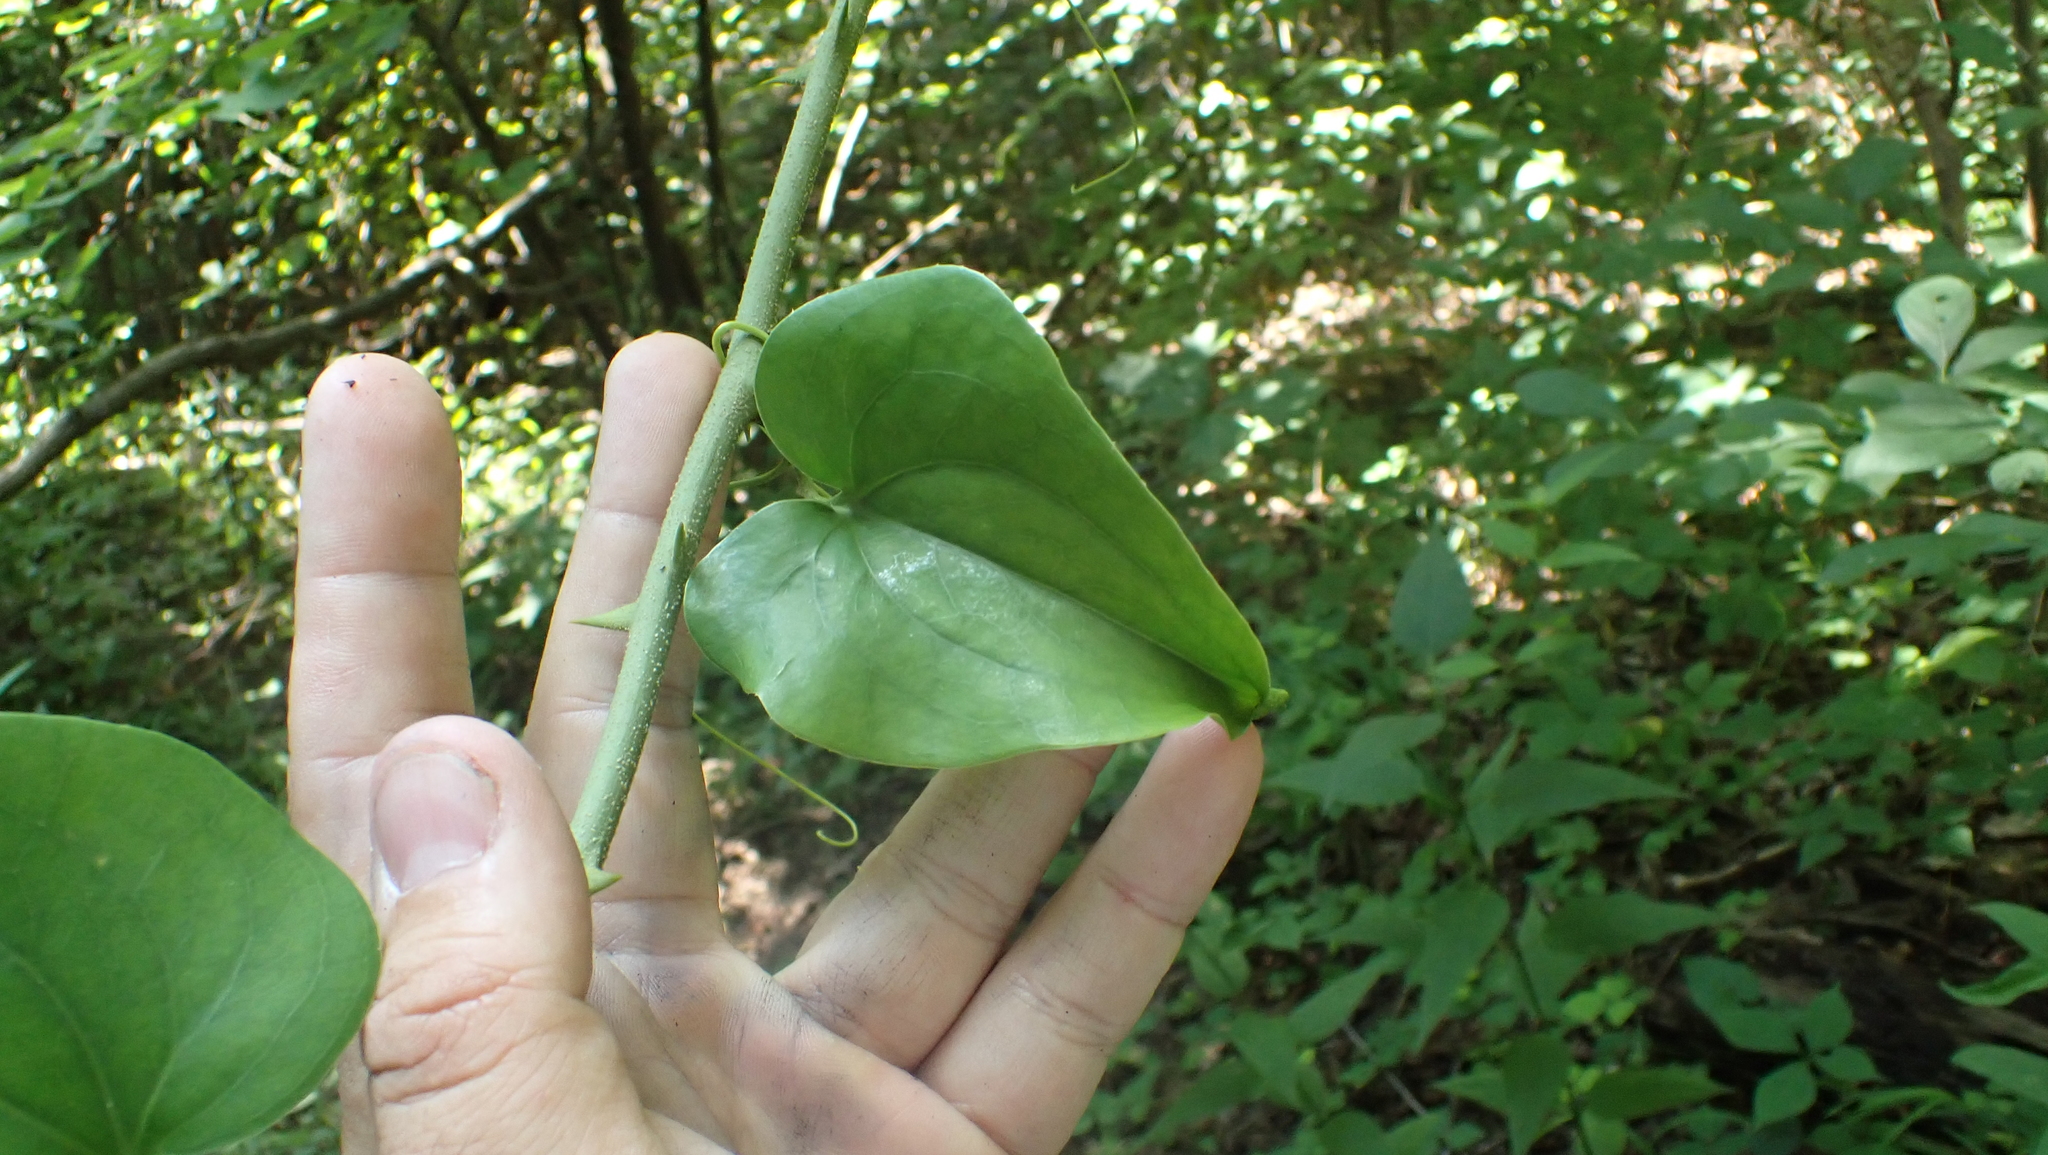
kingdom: Plantae
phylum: Tracheophyta
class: Liliopsida
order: Liliales
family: Smilacaceae
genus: Smilax
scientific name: Smilax bona-nox
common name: Catbrier
